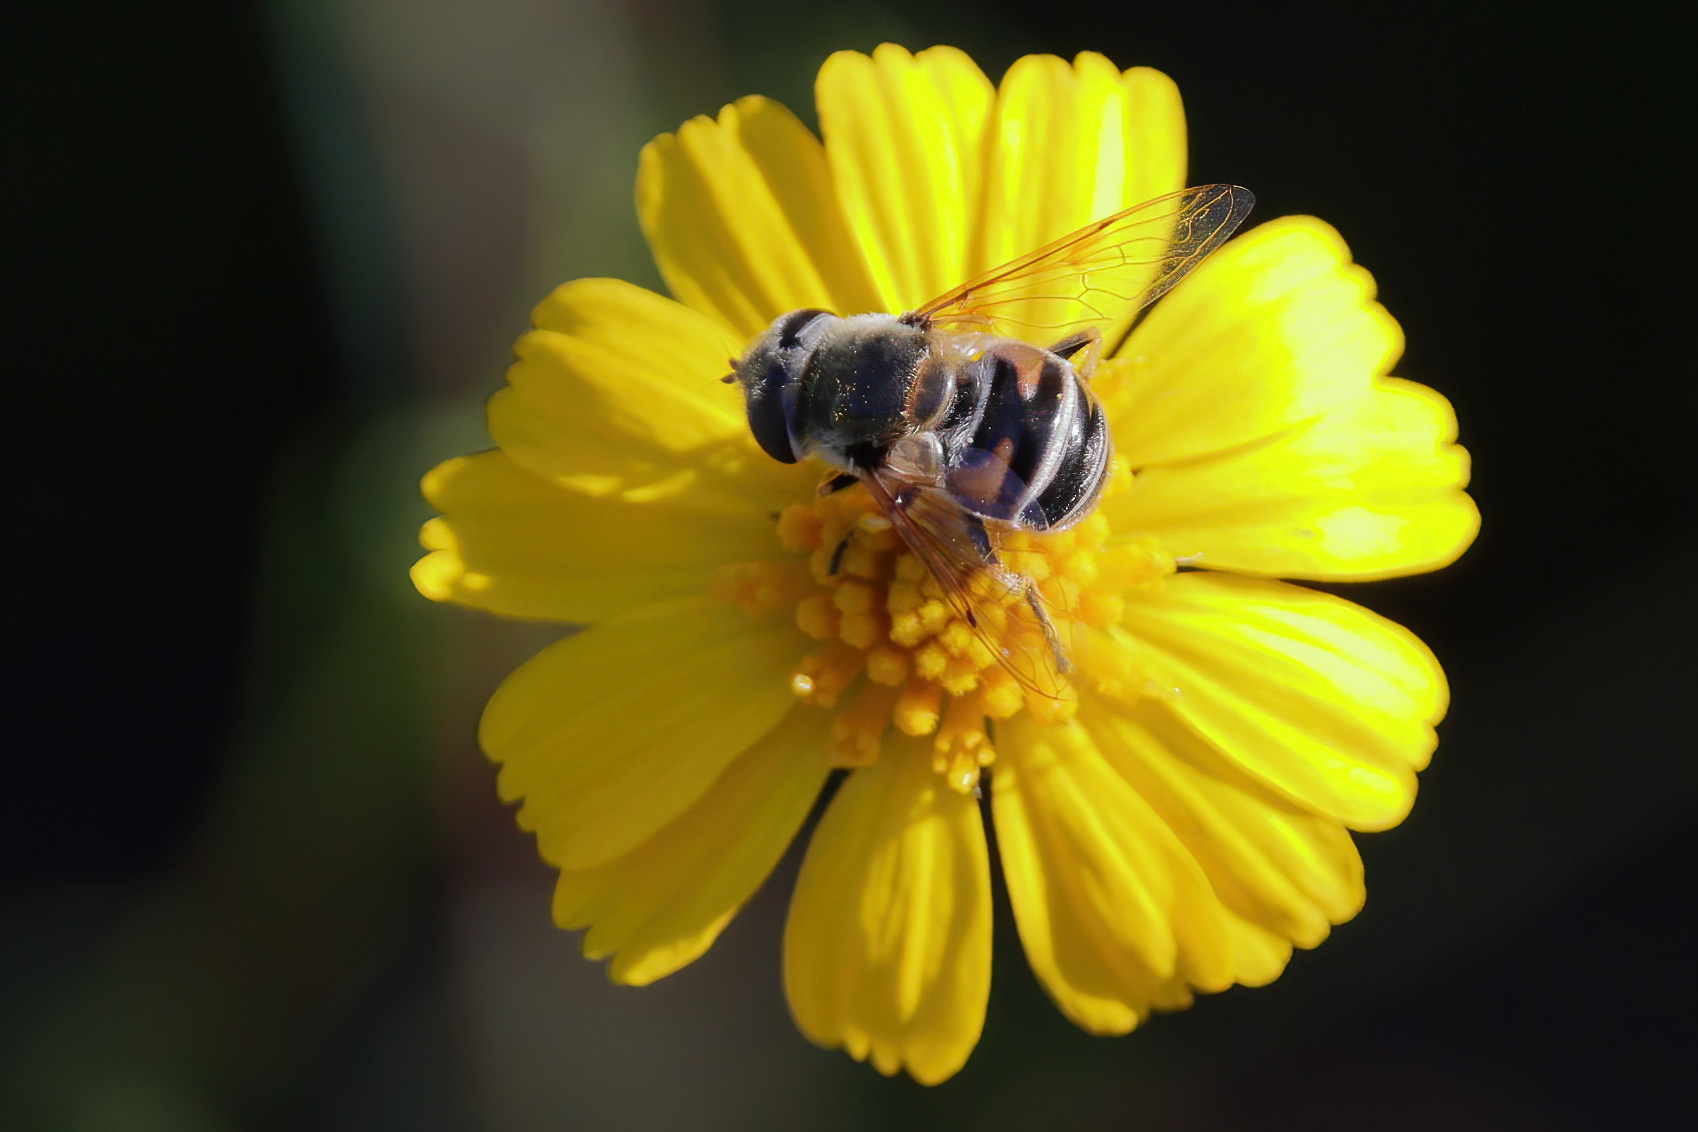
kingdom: Animalia
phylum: Arthropoda
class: Insecta
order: Diptera
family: Syrphidae
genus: Eristalis
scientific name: Eristalis stipator
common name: Yellow-shouldered drone fly
